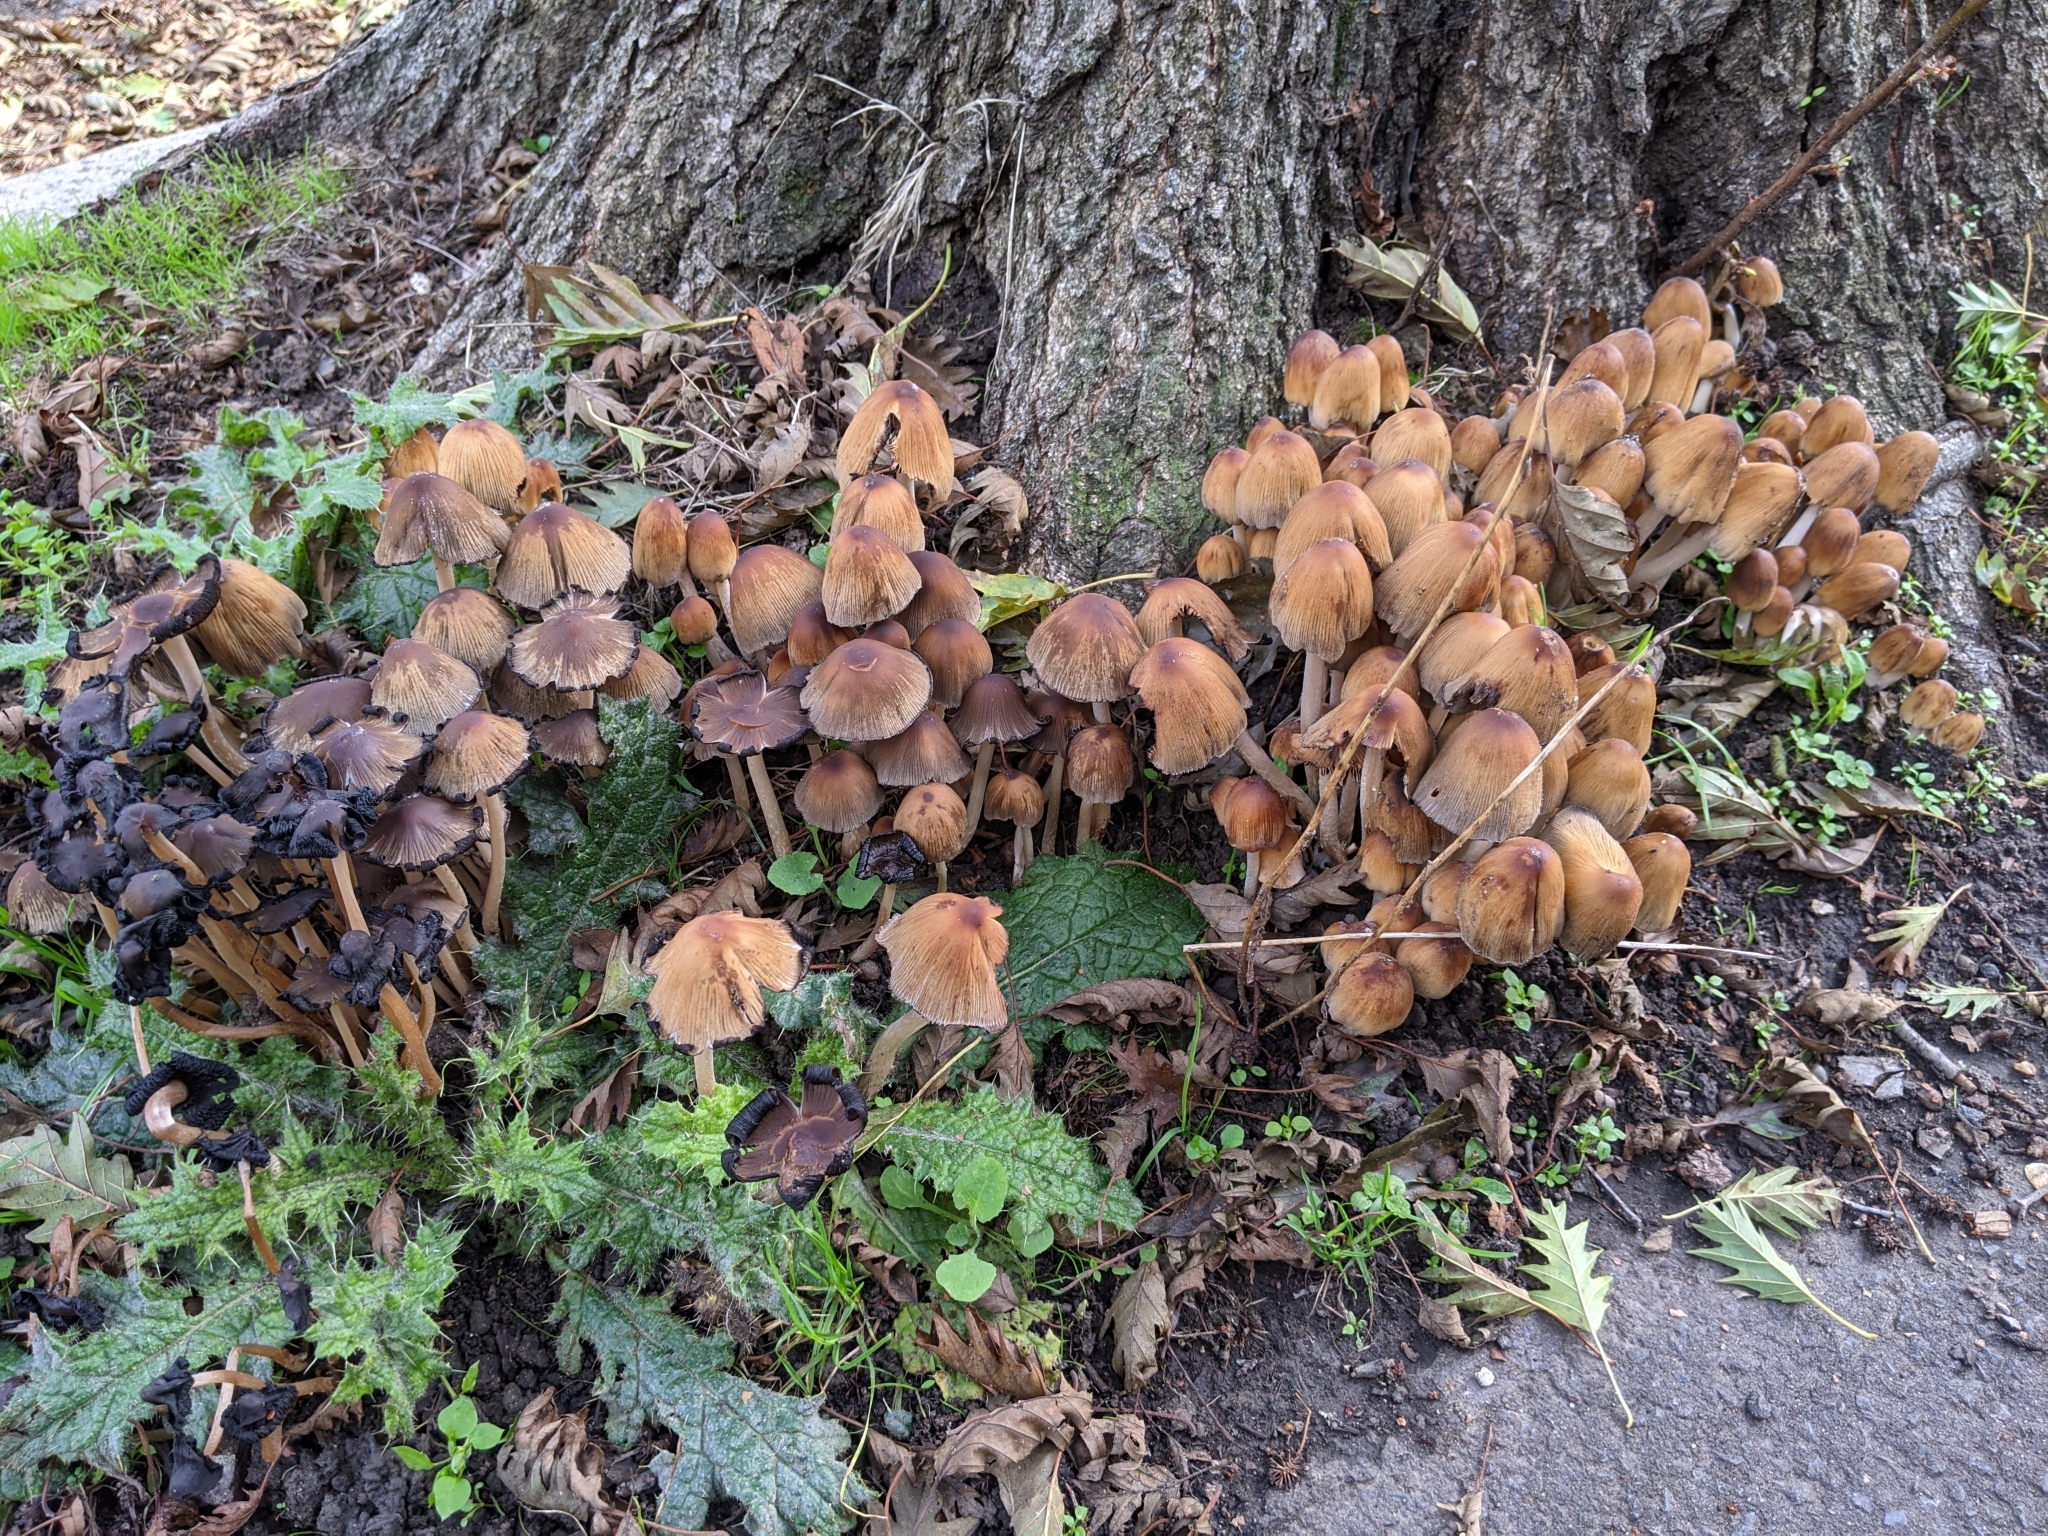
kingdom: Fungi
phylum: Basidiomycota
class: Agaricomycetes
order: Agaricales
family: Psathyrellaceae
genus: Coprinellus
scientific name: Coprinellus micaceus
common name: Glistening ink-cap
